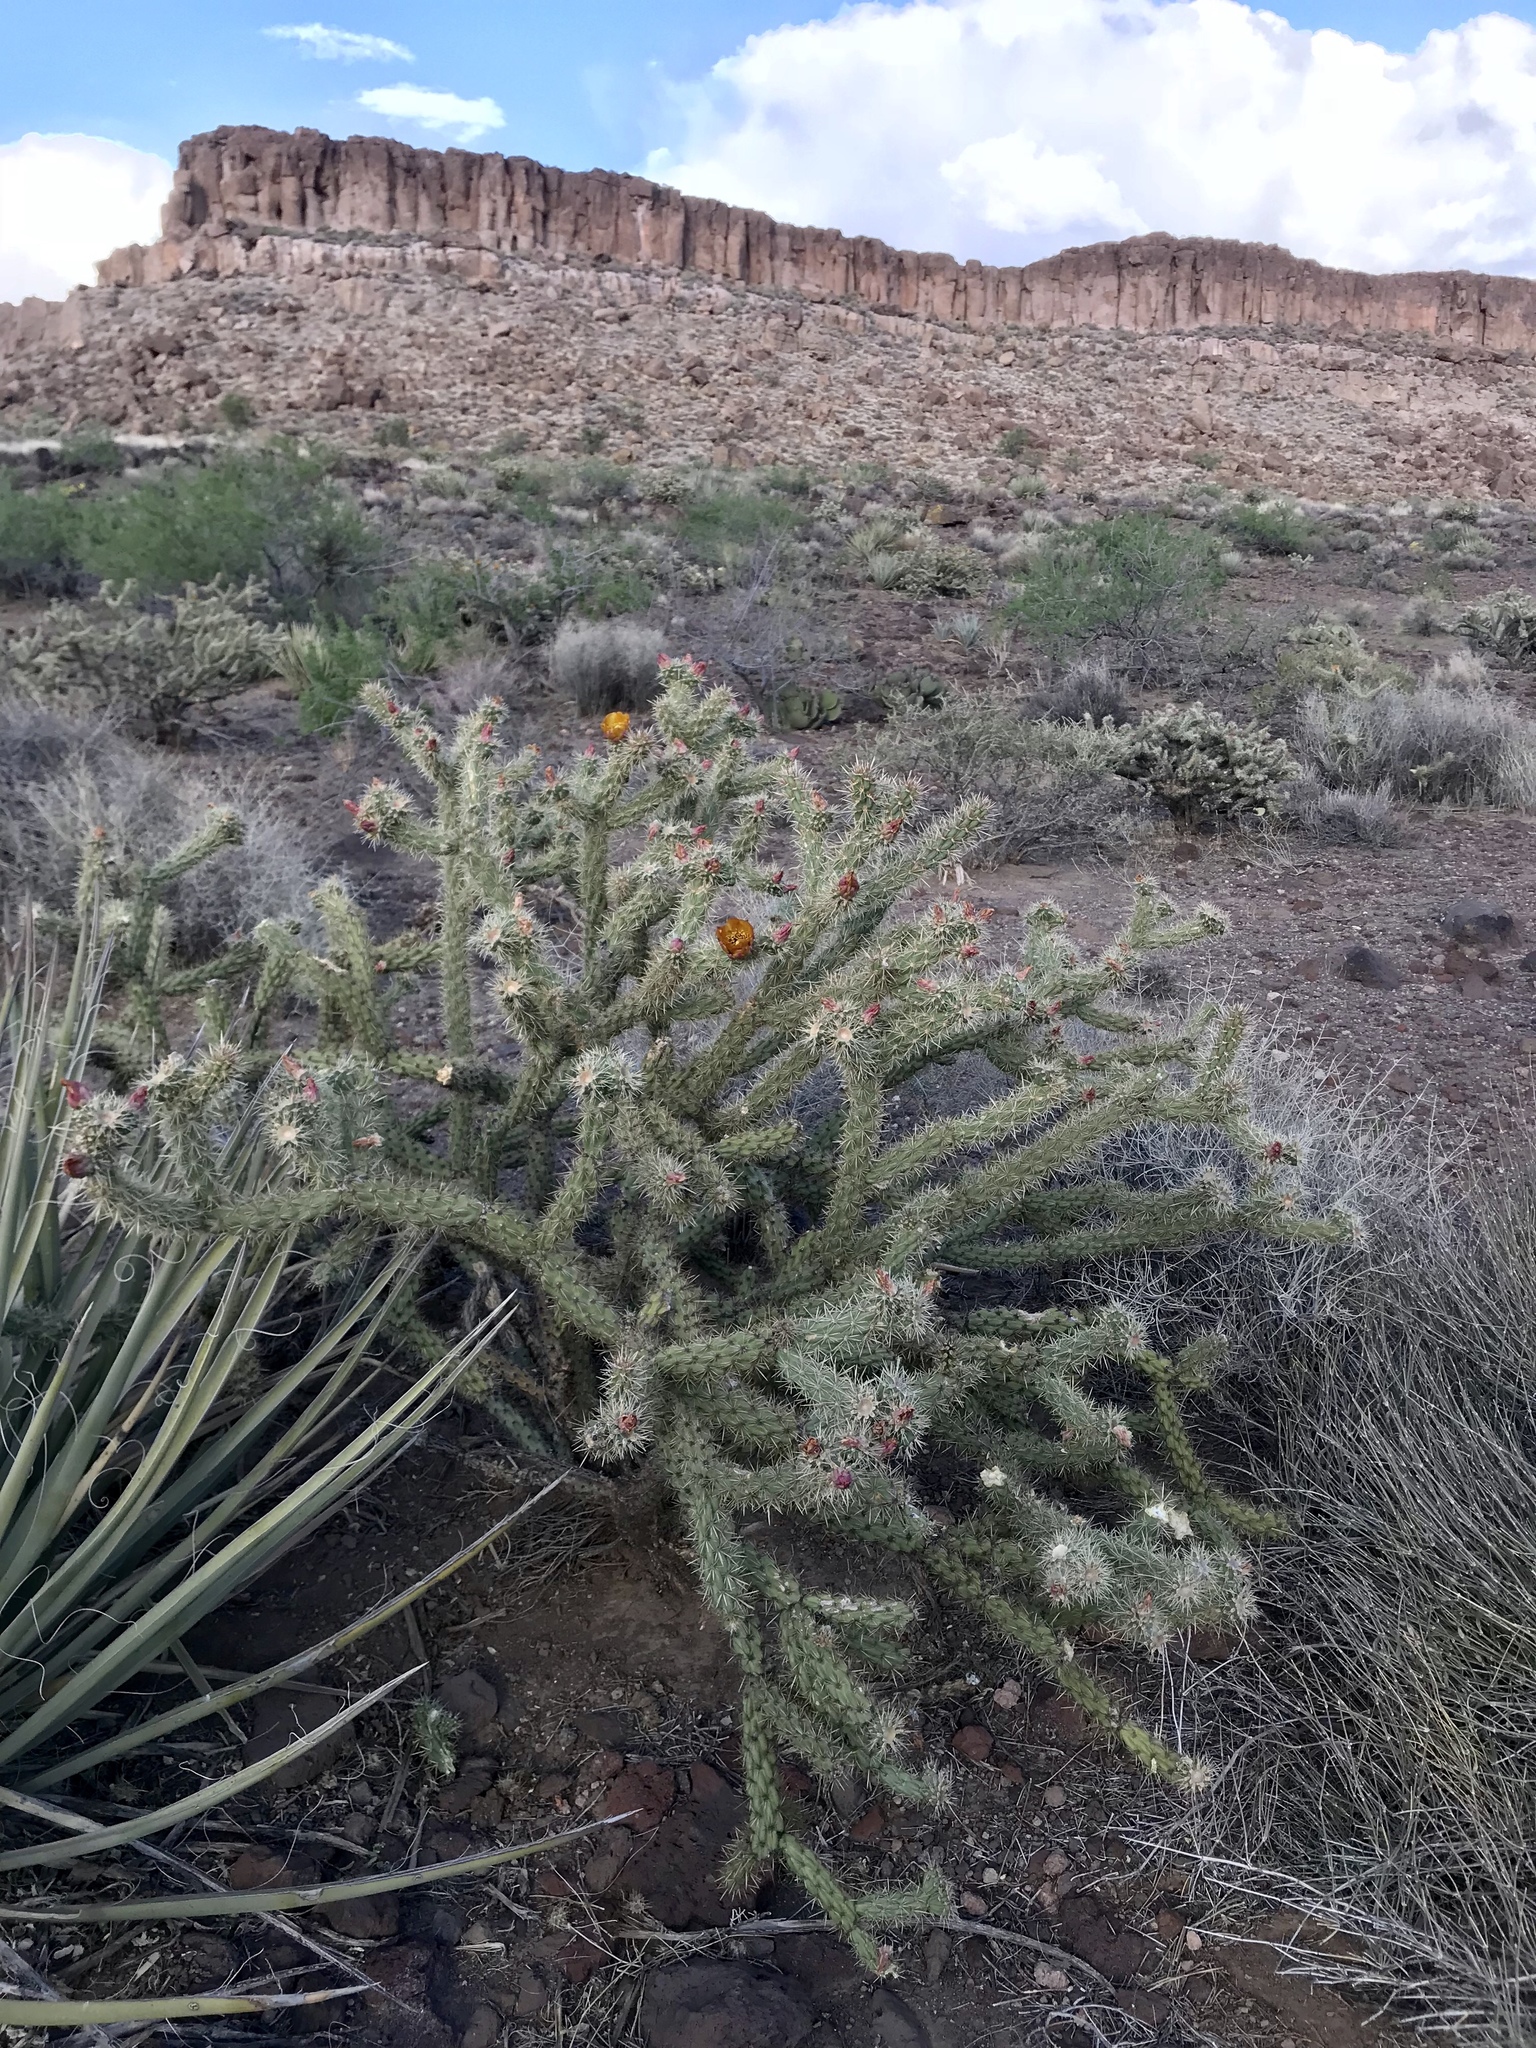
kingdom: Plantae
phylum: Tracheophyta
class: Magnoliopsida
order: Caryophyllales
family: Cactaceae
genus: Cylindropuntia
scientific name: Cylindropuntia acanthocarpa
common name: Buckhorn cholla
